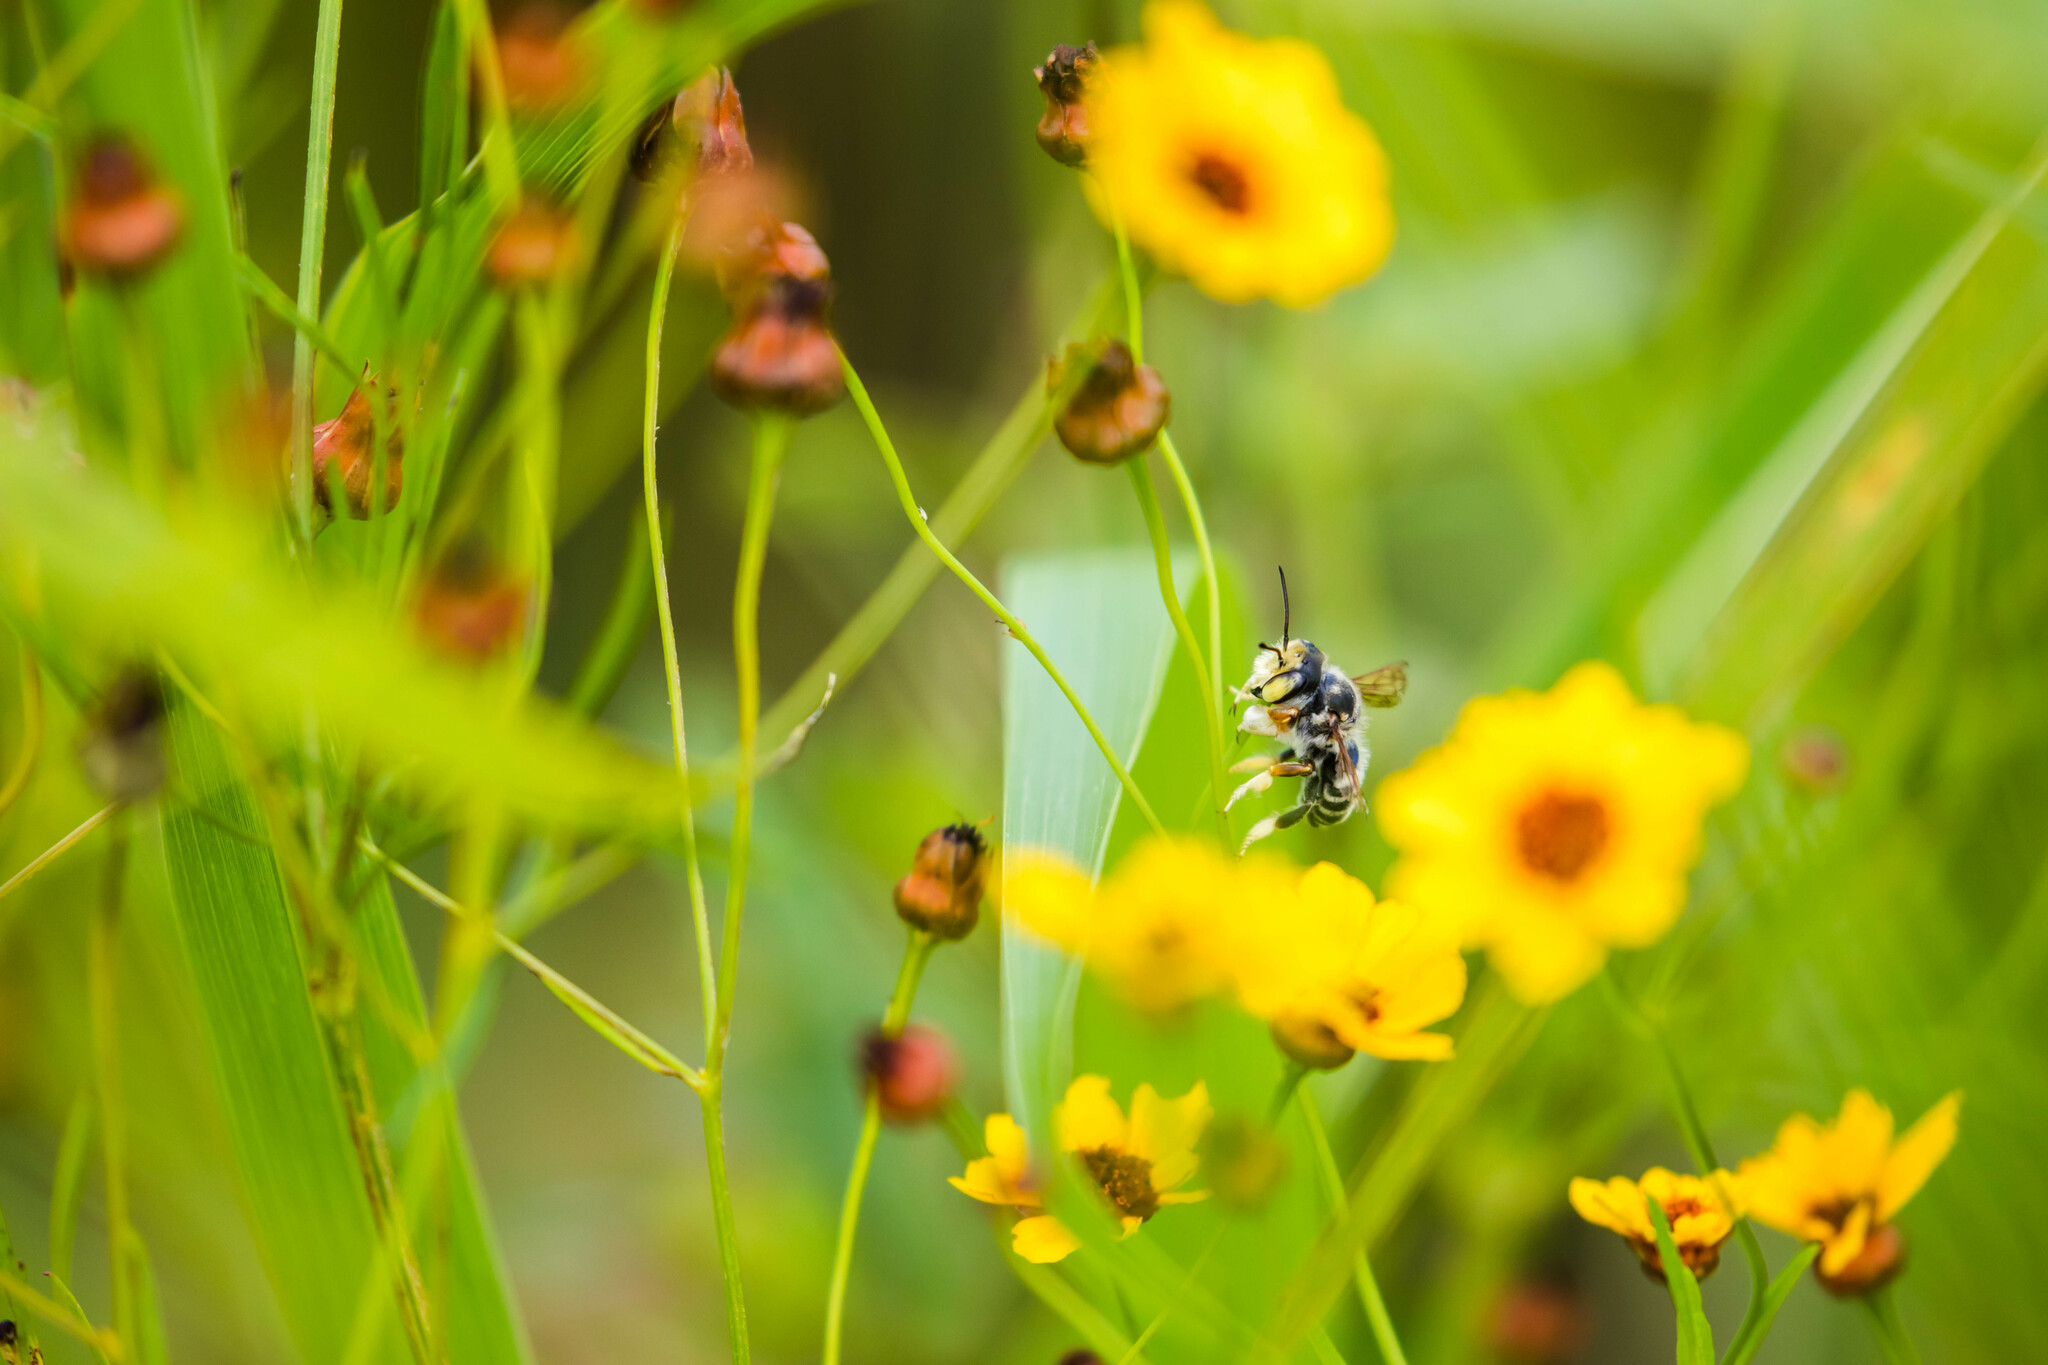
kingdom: Animalia
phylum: Arthropoda
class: Insecta
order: Hymenoptera
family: Megachilidae
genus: Megachile
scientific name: Megachile albitarsis
